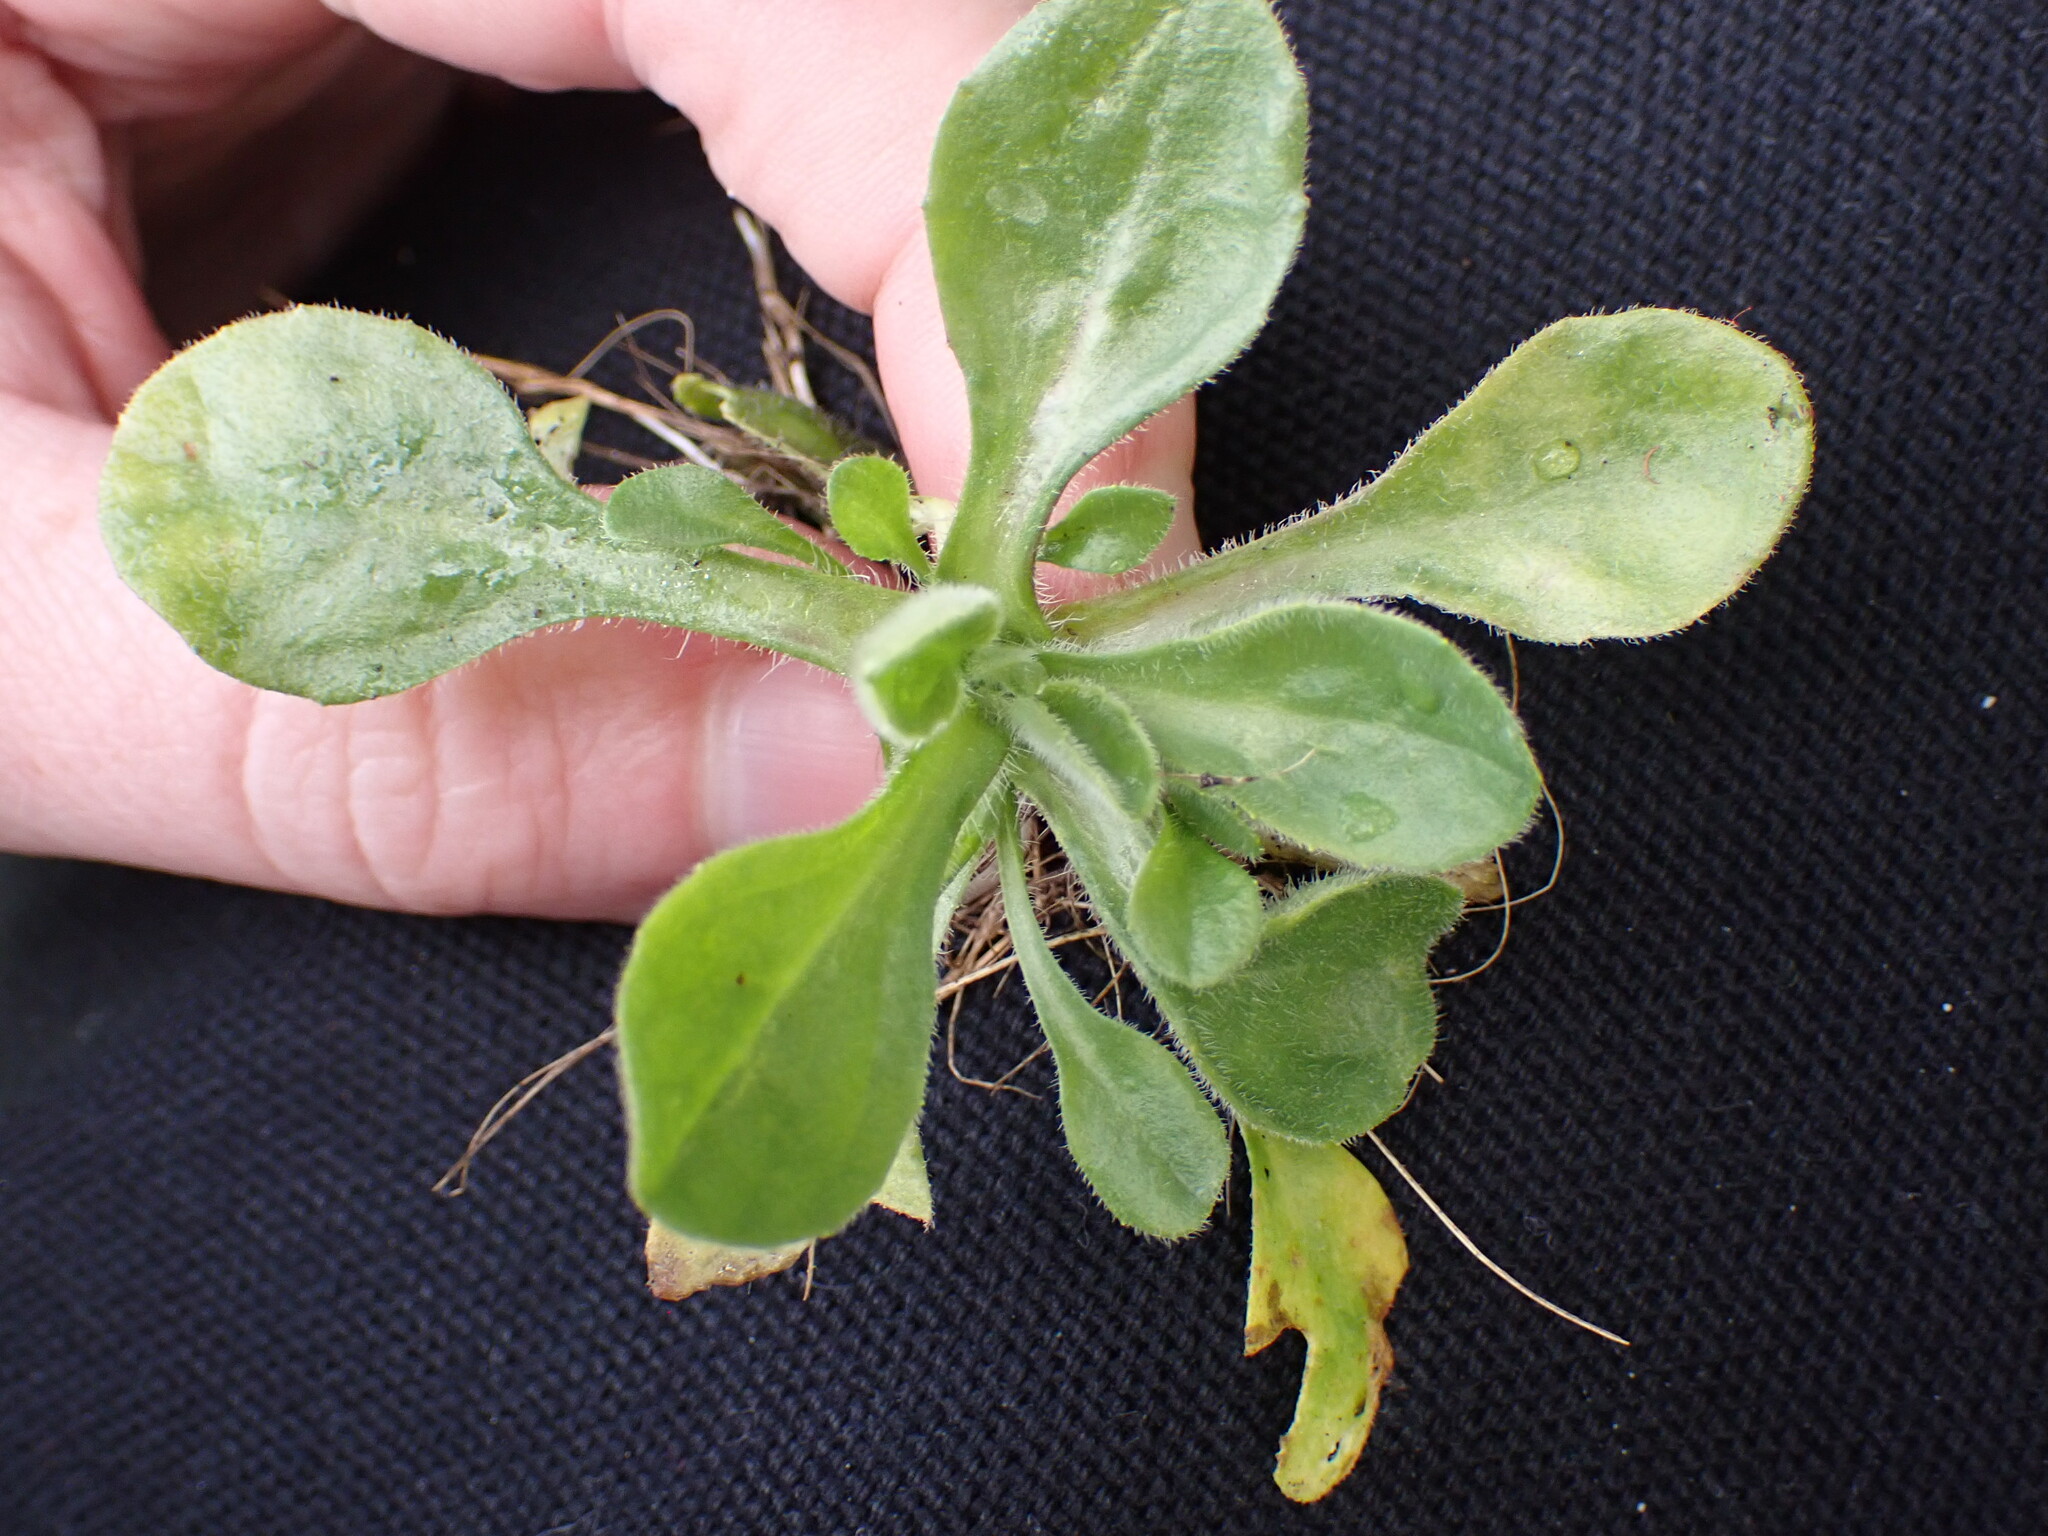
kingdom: Plantae
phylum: Tracheophyta
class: Magnoliopsida
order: Asterales
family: Asteraceae
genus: Bellis
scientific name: Bellis perennis
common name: Lawndaisy
